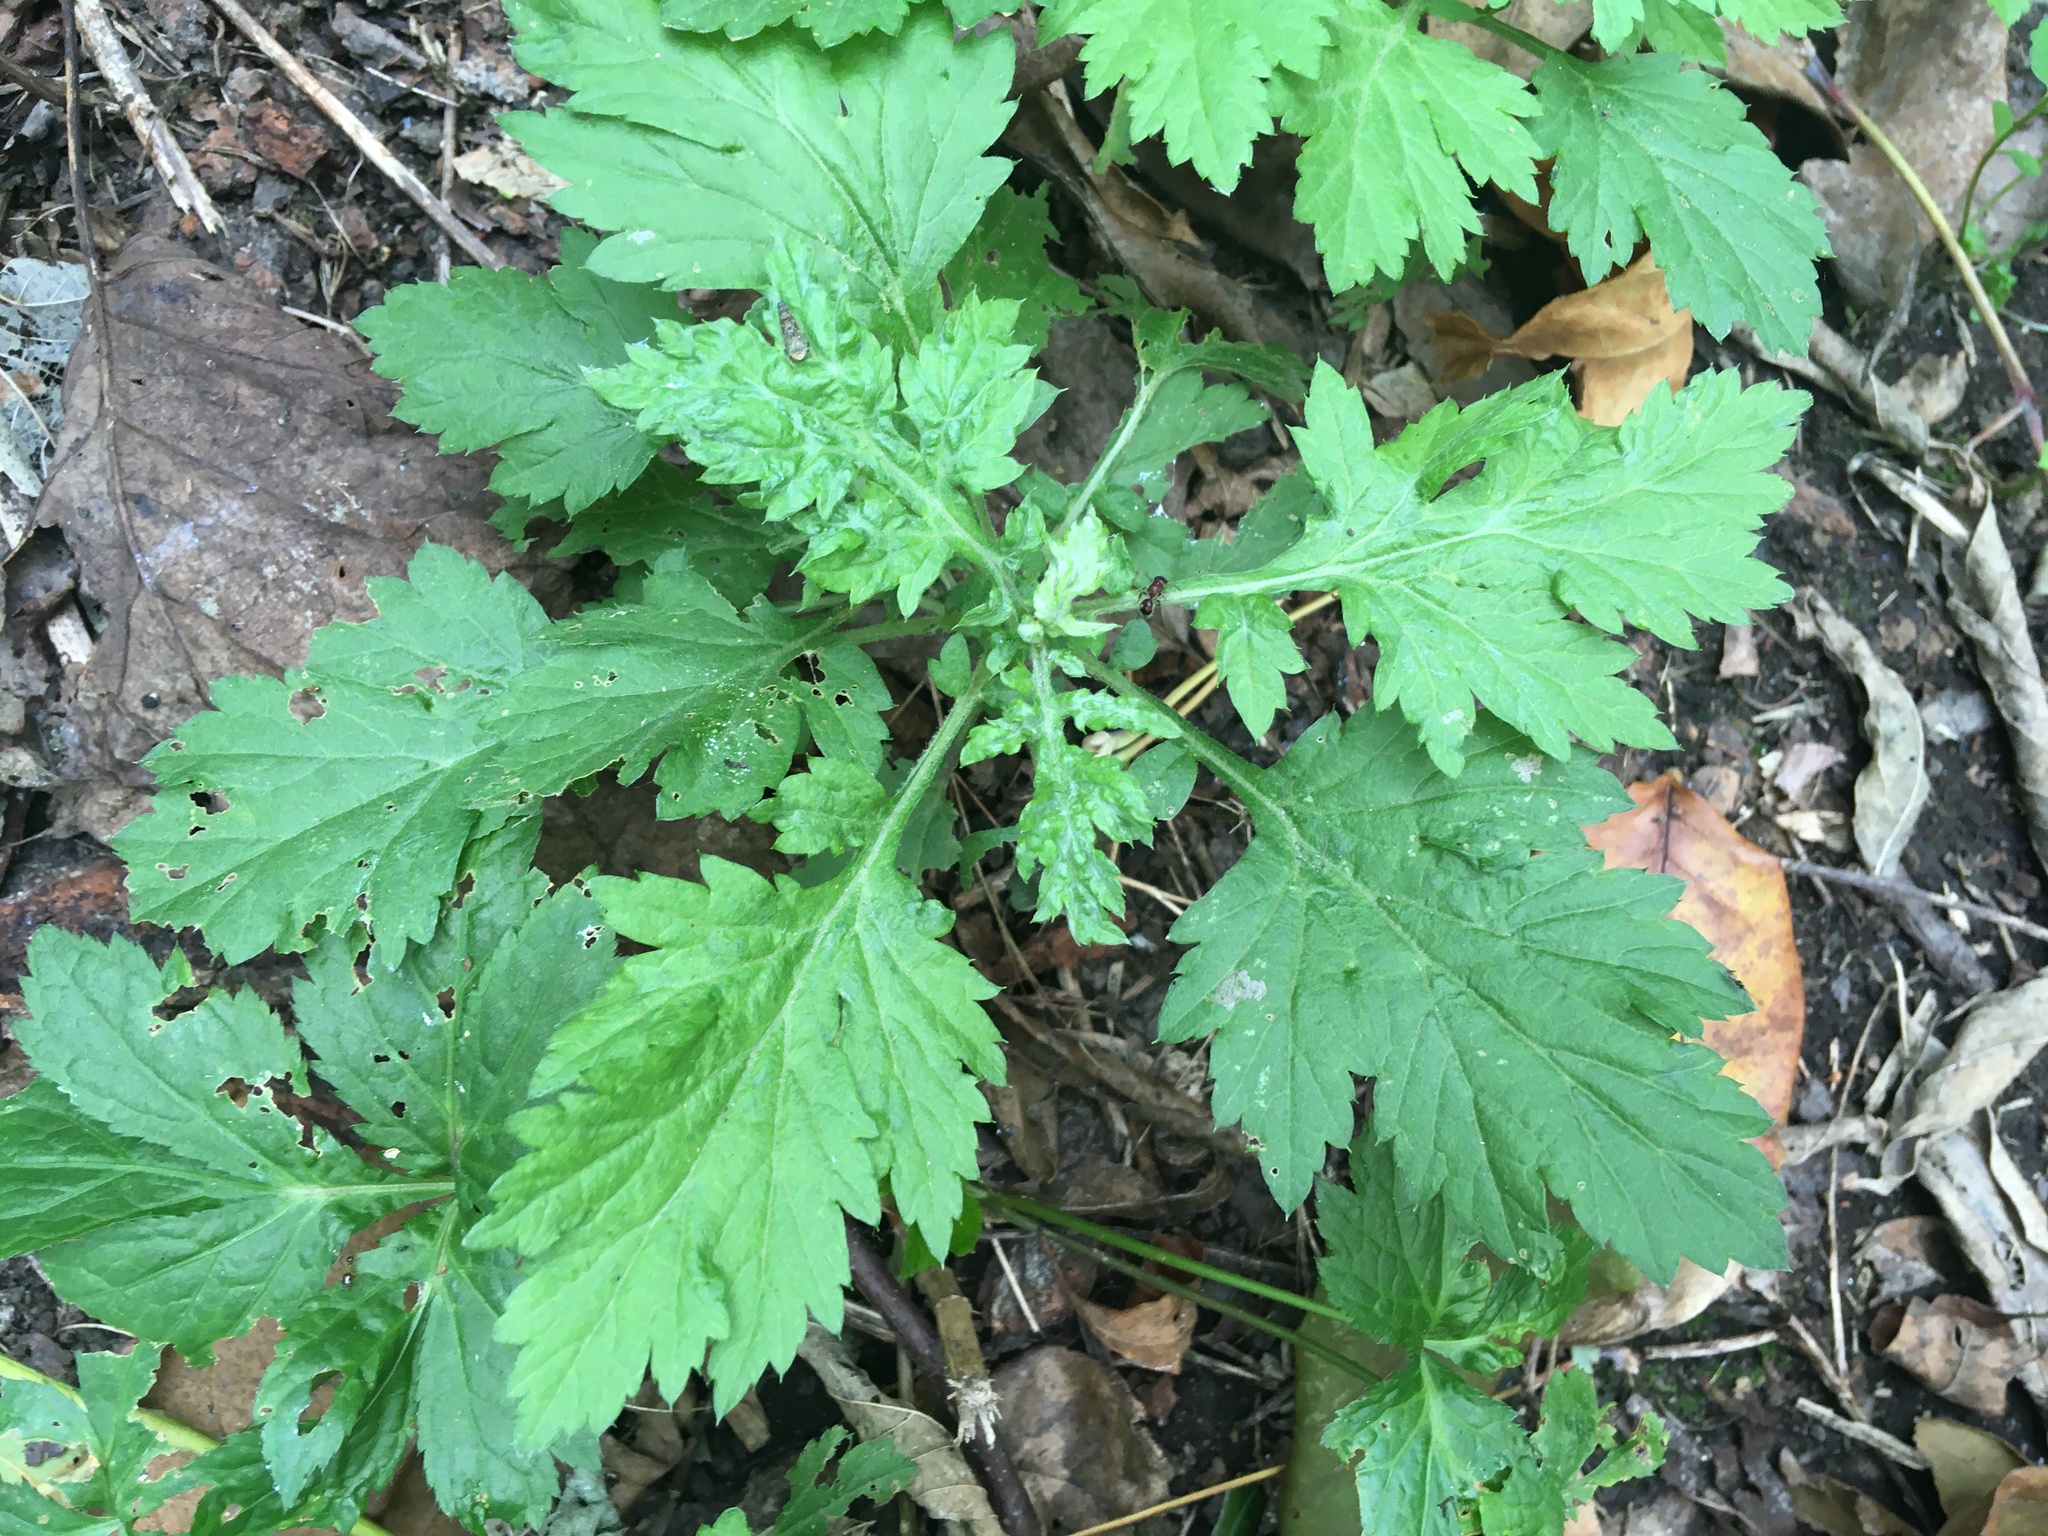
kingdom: Plantae
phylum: Tracheophyta
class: Magnoliopsida
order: Asterales
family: Asteraceae
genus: Artemisia
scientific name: Artemisia vulgaris
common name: Mugwort
